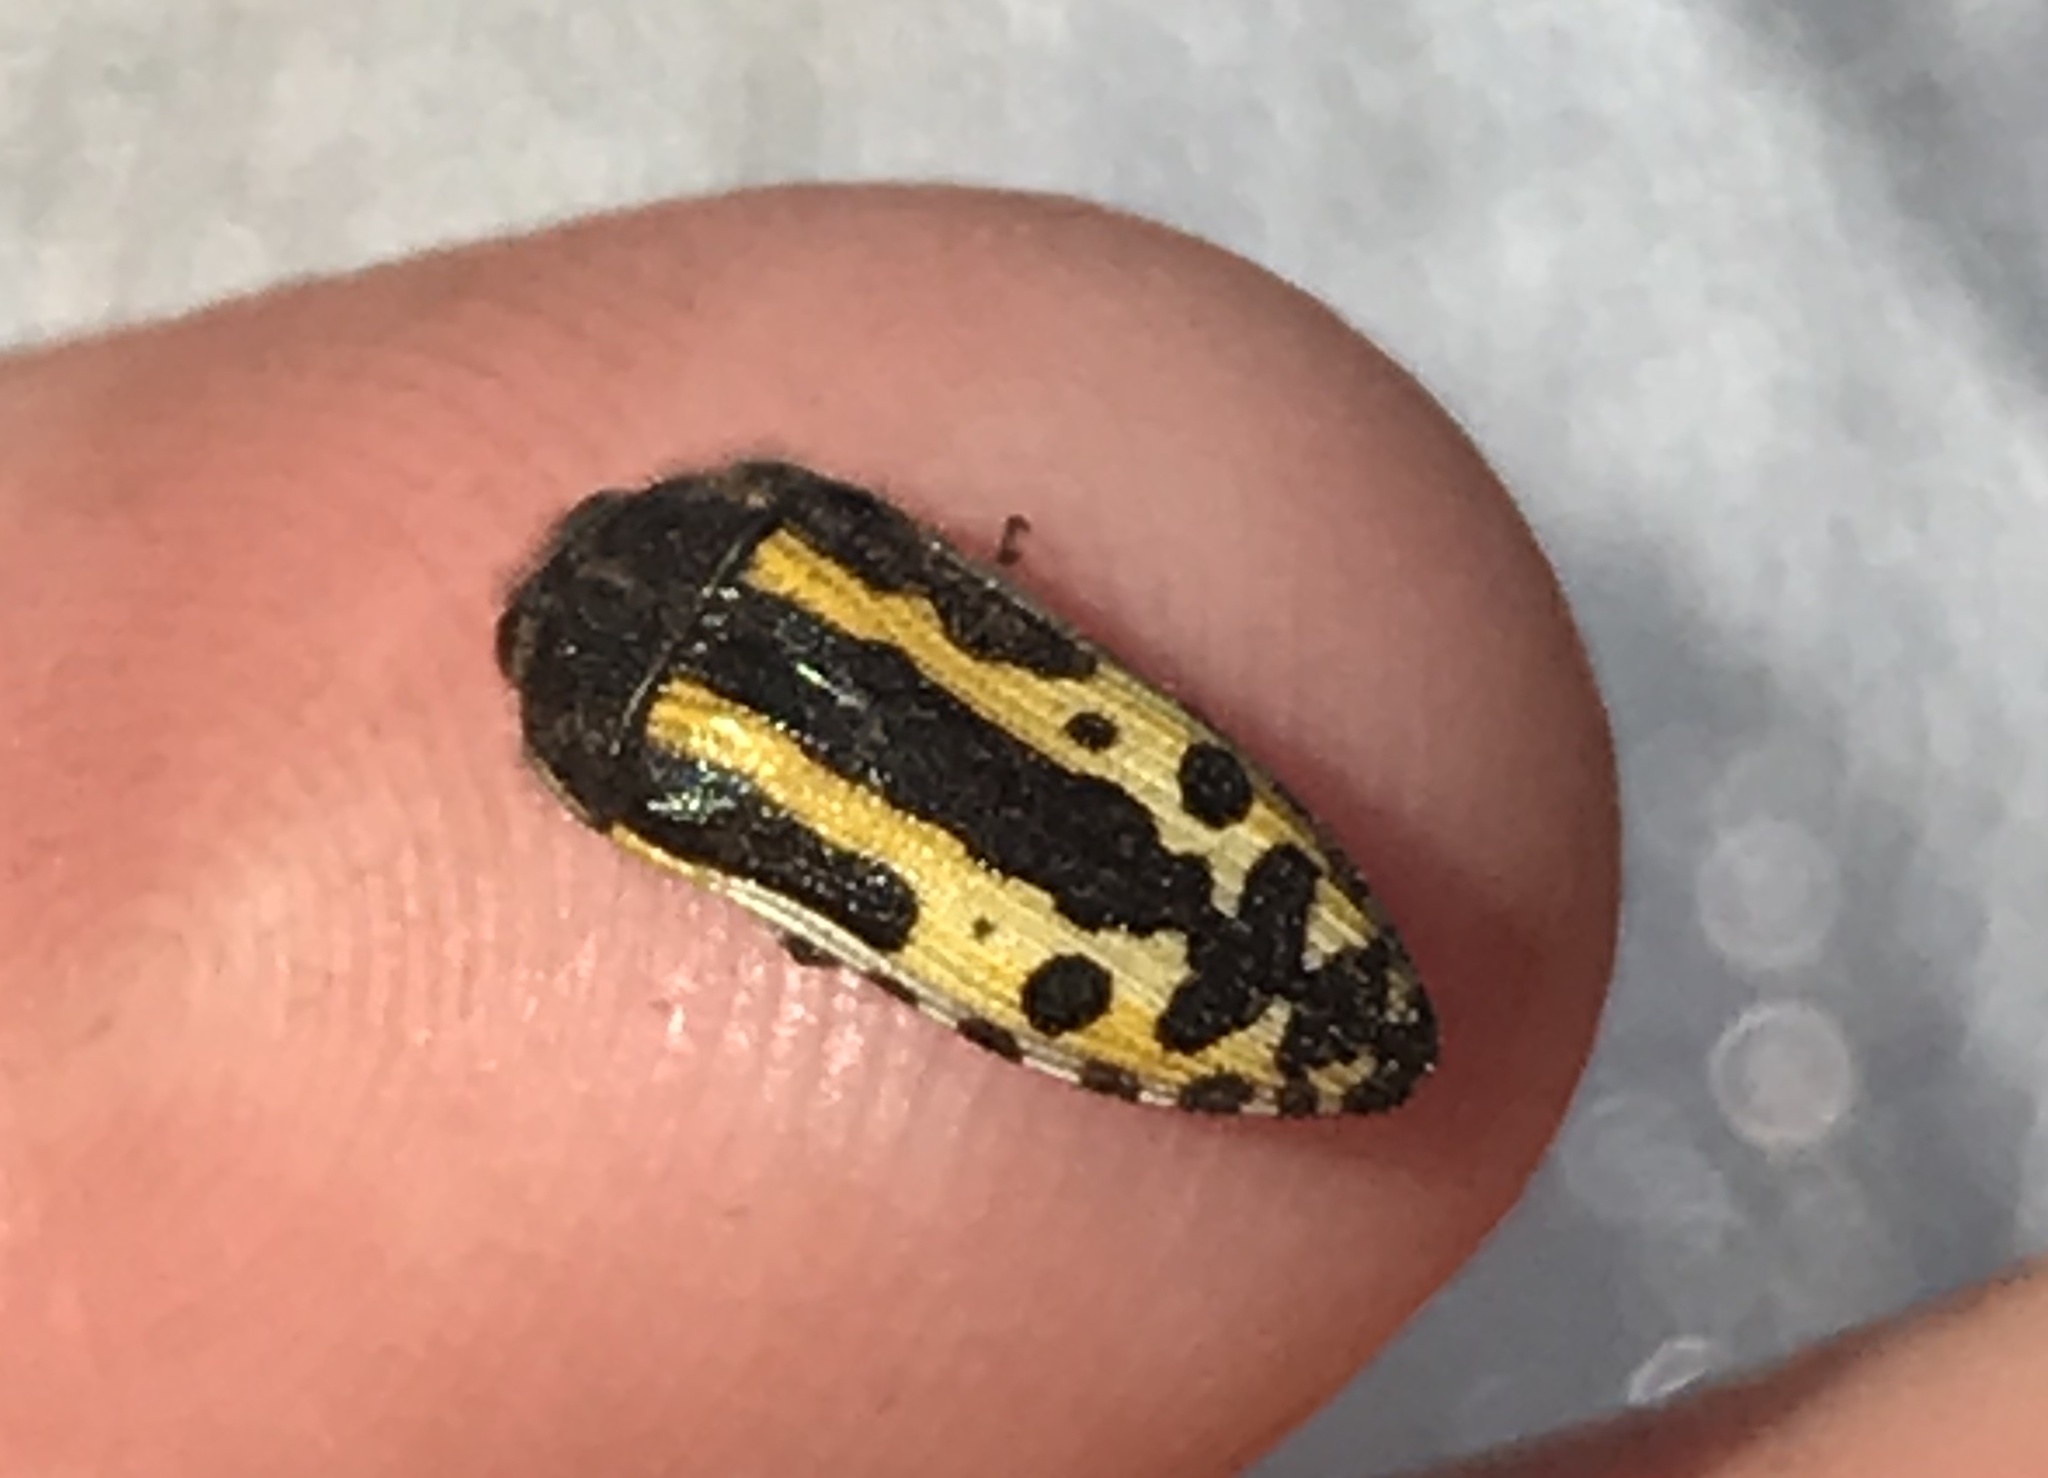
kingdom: Animalia
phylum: Arthropoda
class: Insecta
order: Coleoptera
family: Buprestidae
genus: Acmaeodera
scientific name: Acmaeodera scalaris
